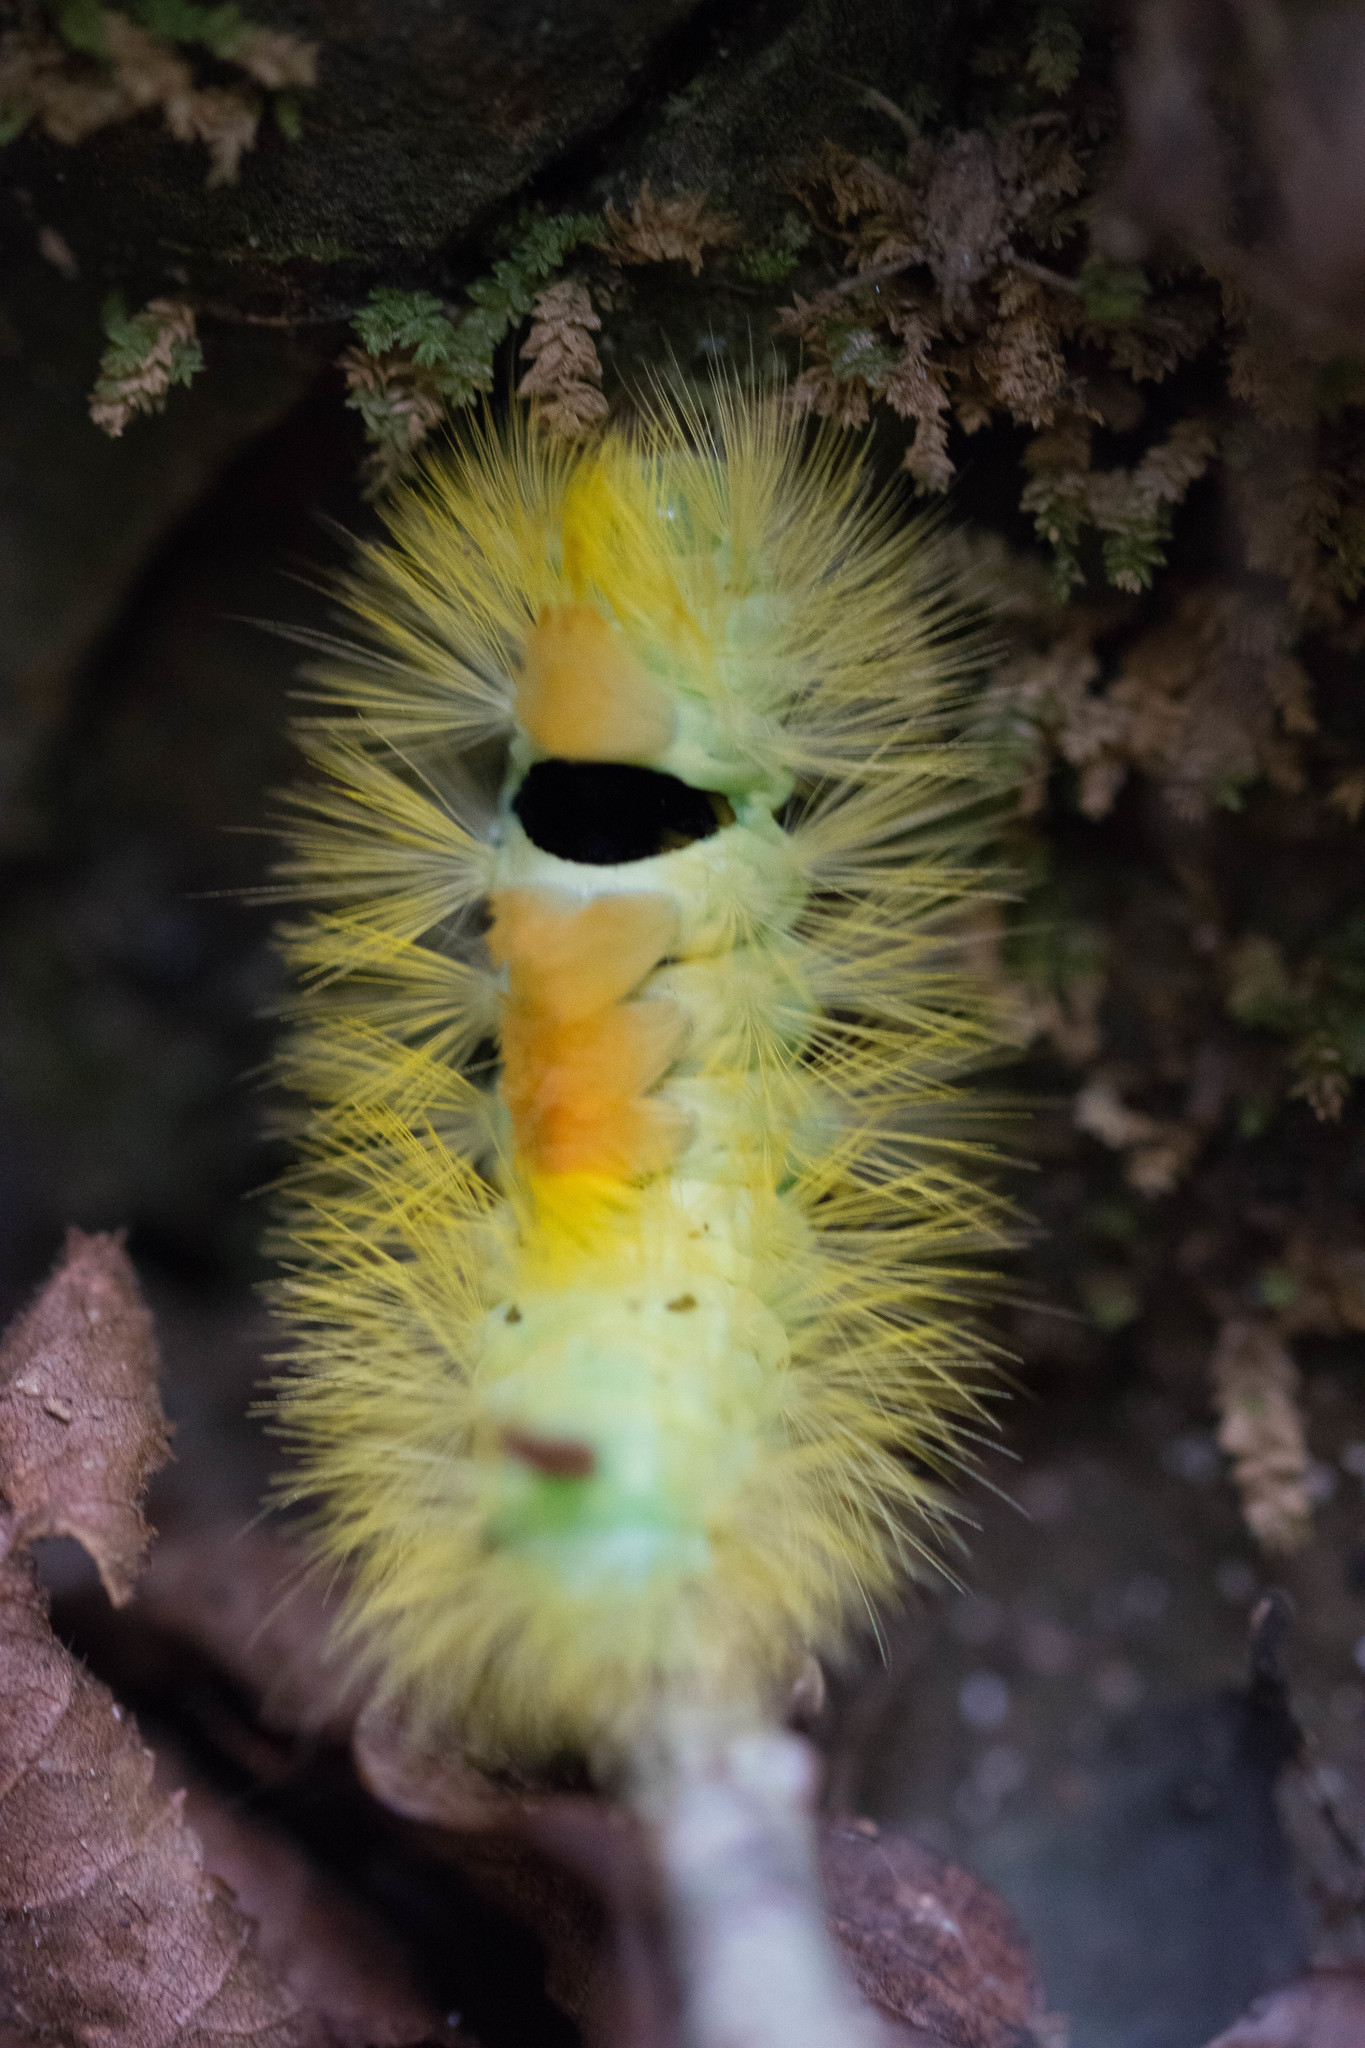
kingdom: Animalia
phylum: Arthropoda
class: Insecta
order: Lepidoptera
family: Erebidae
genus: Calliteara
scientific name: Calliteara pudibunda
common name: Pale tussock
